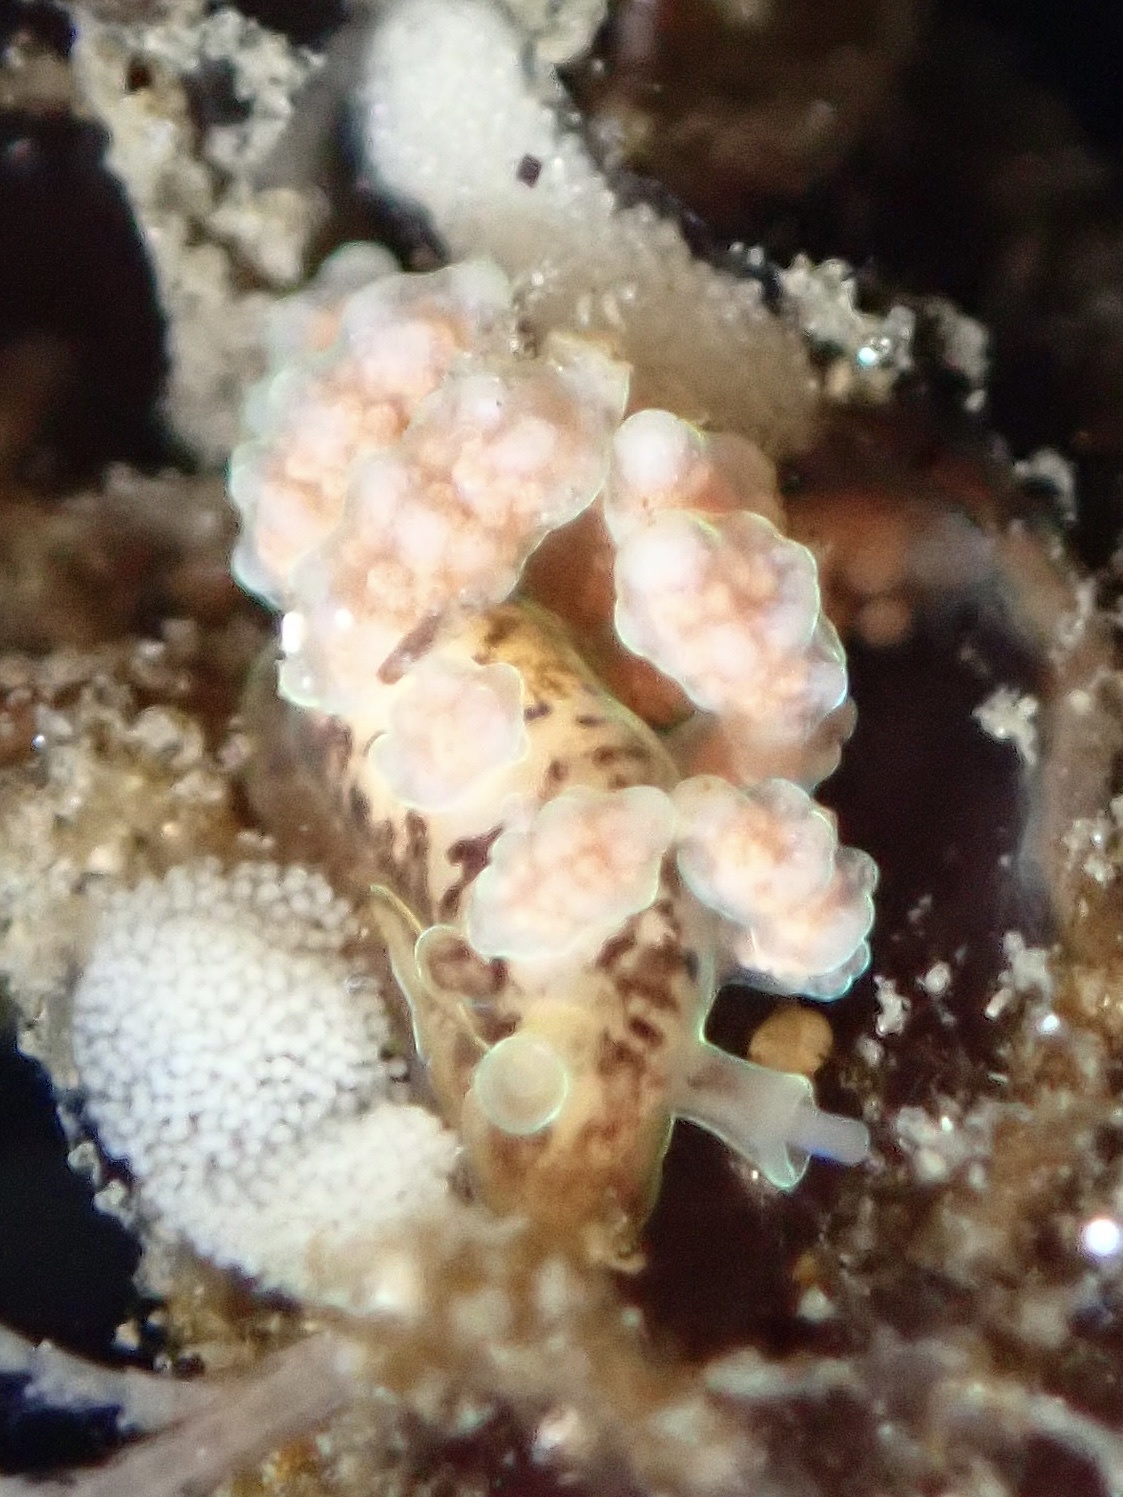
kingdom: Animalia
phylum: Mollusca
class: Gastropoda
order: Nudibranchia
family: Dotidae
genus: Doto
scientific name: Doto columbiana
